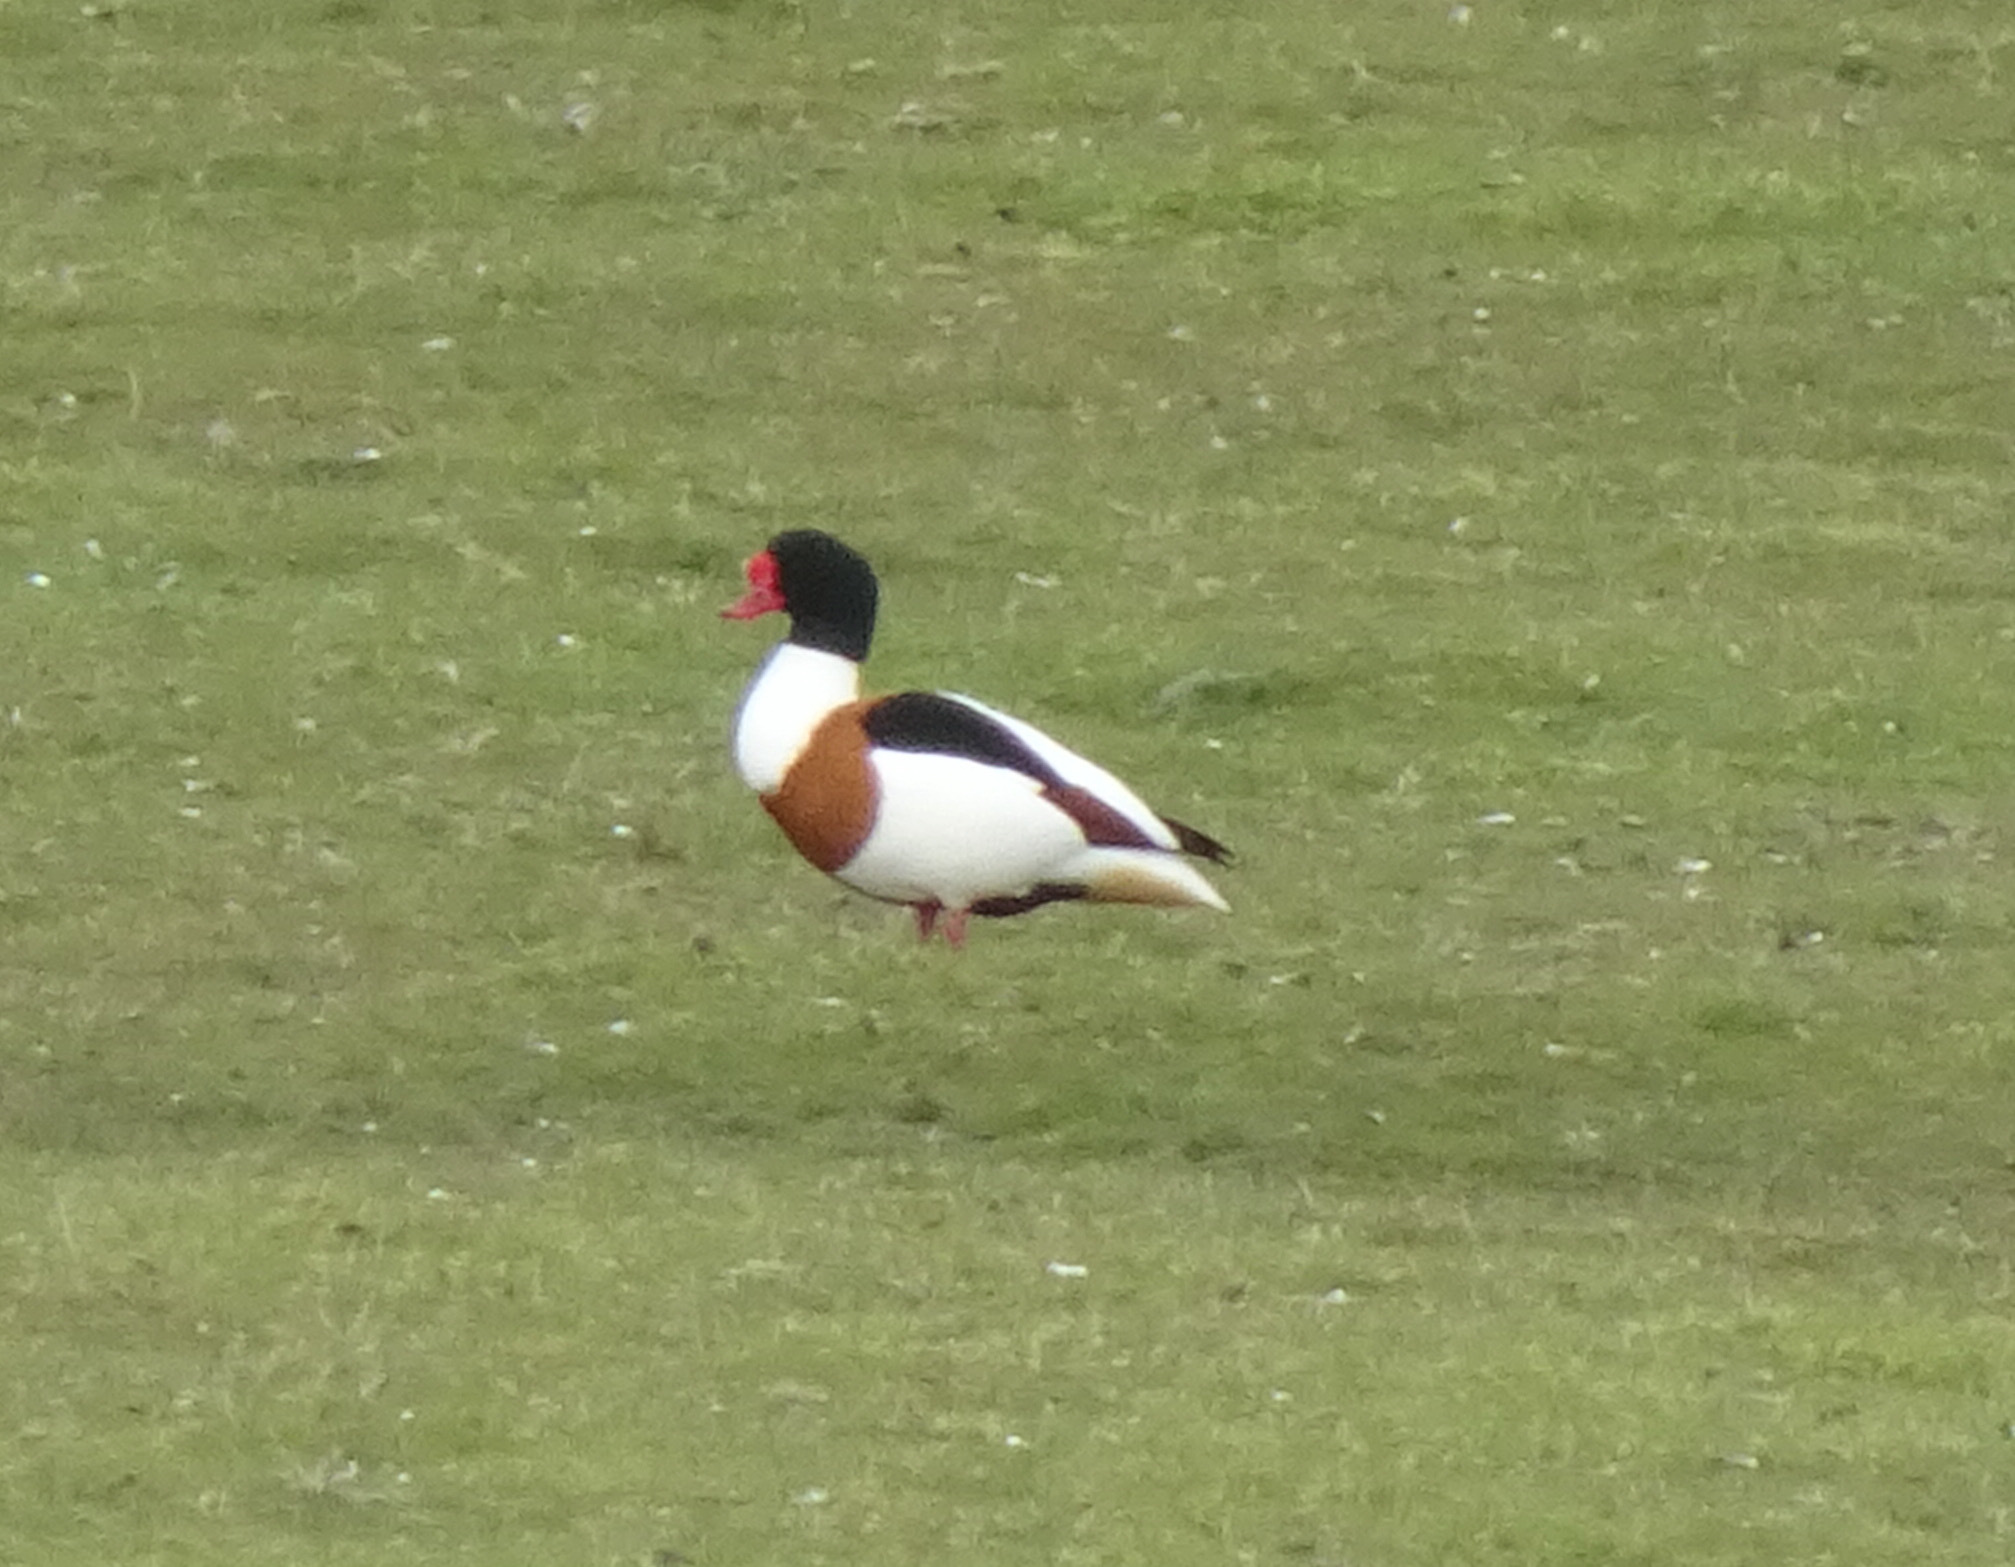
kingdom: Animalia
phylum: Chordata
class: Aves
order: Anseriformes
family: Anatidae
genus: Tadorna
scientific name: Tadorna tadorna
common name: Common shelduck
